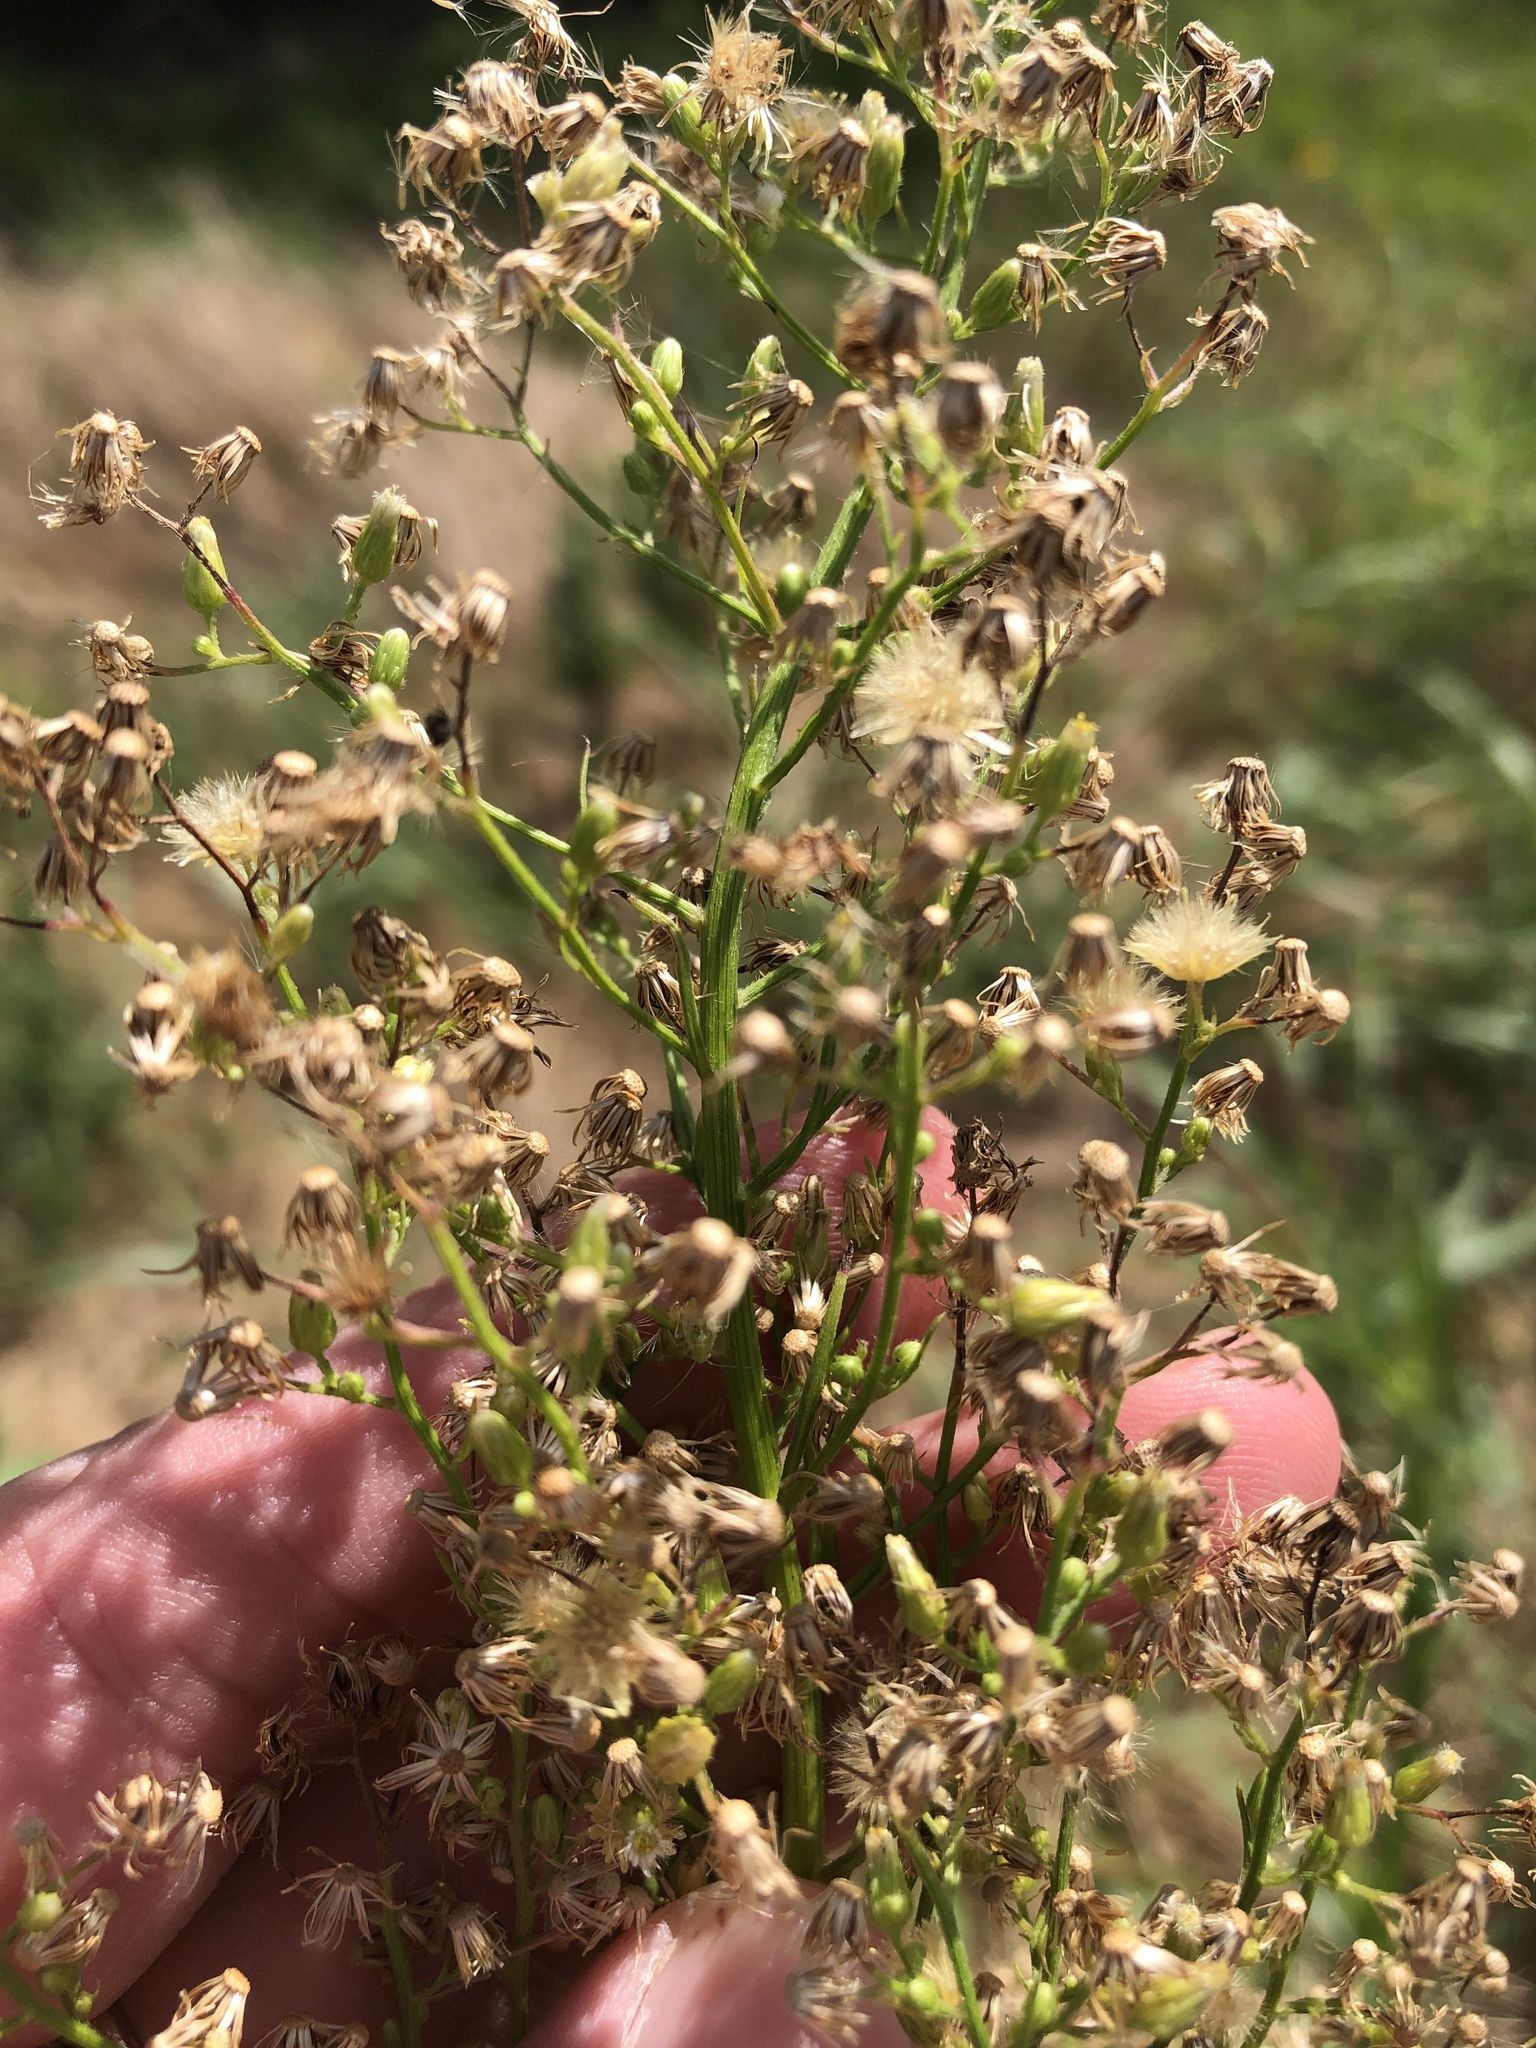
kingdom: Plantae
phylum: Tracheophyta
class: Magnoliopsida
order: Asterales
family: Asteraceae
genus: Erigeron
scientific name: Erigeron canadensis
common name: Canadian fleabane
